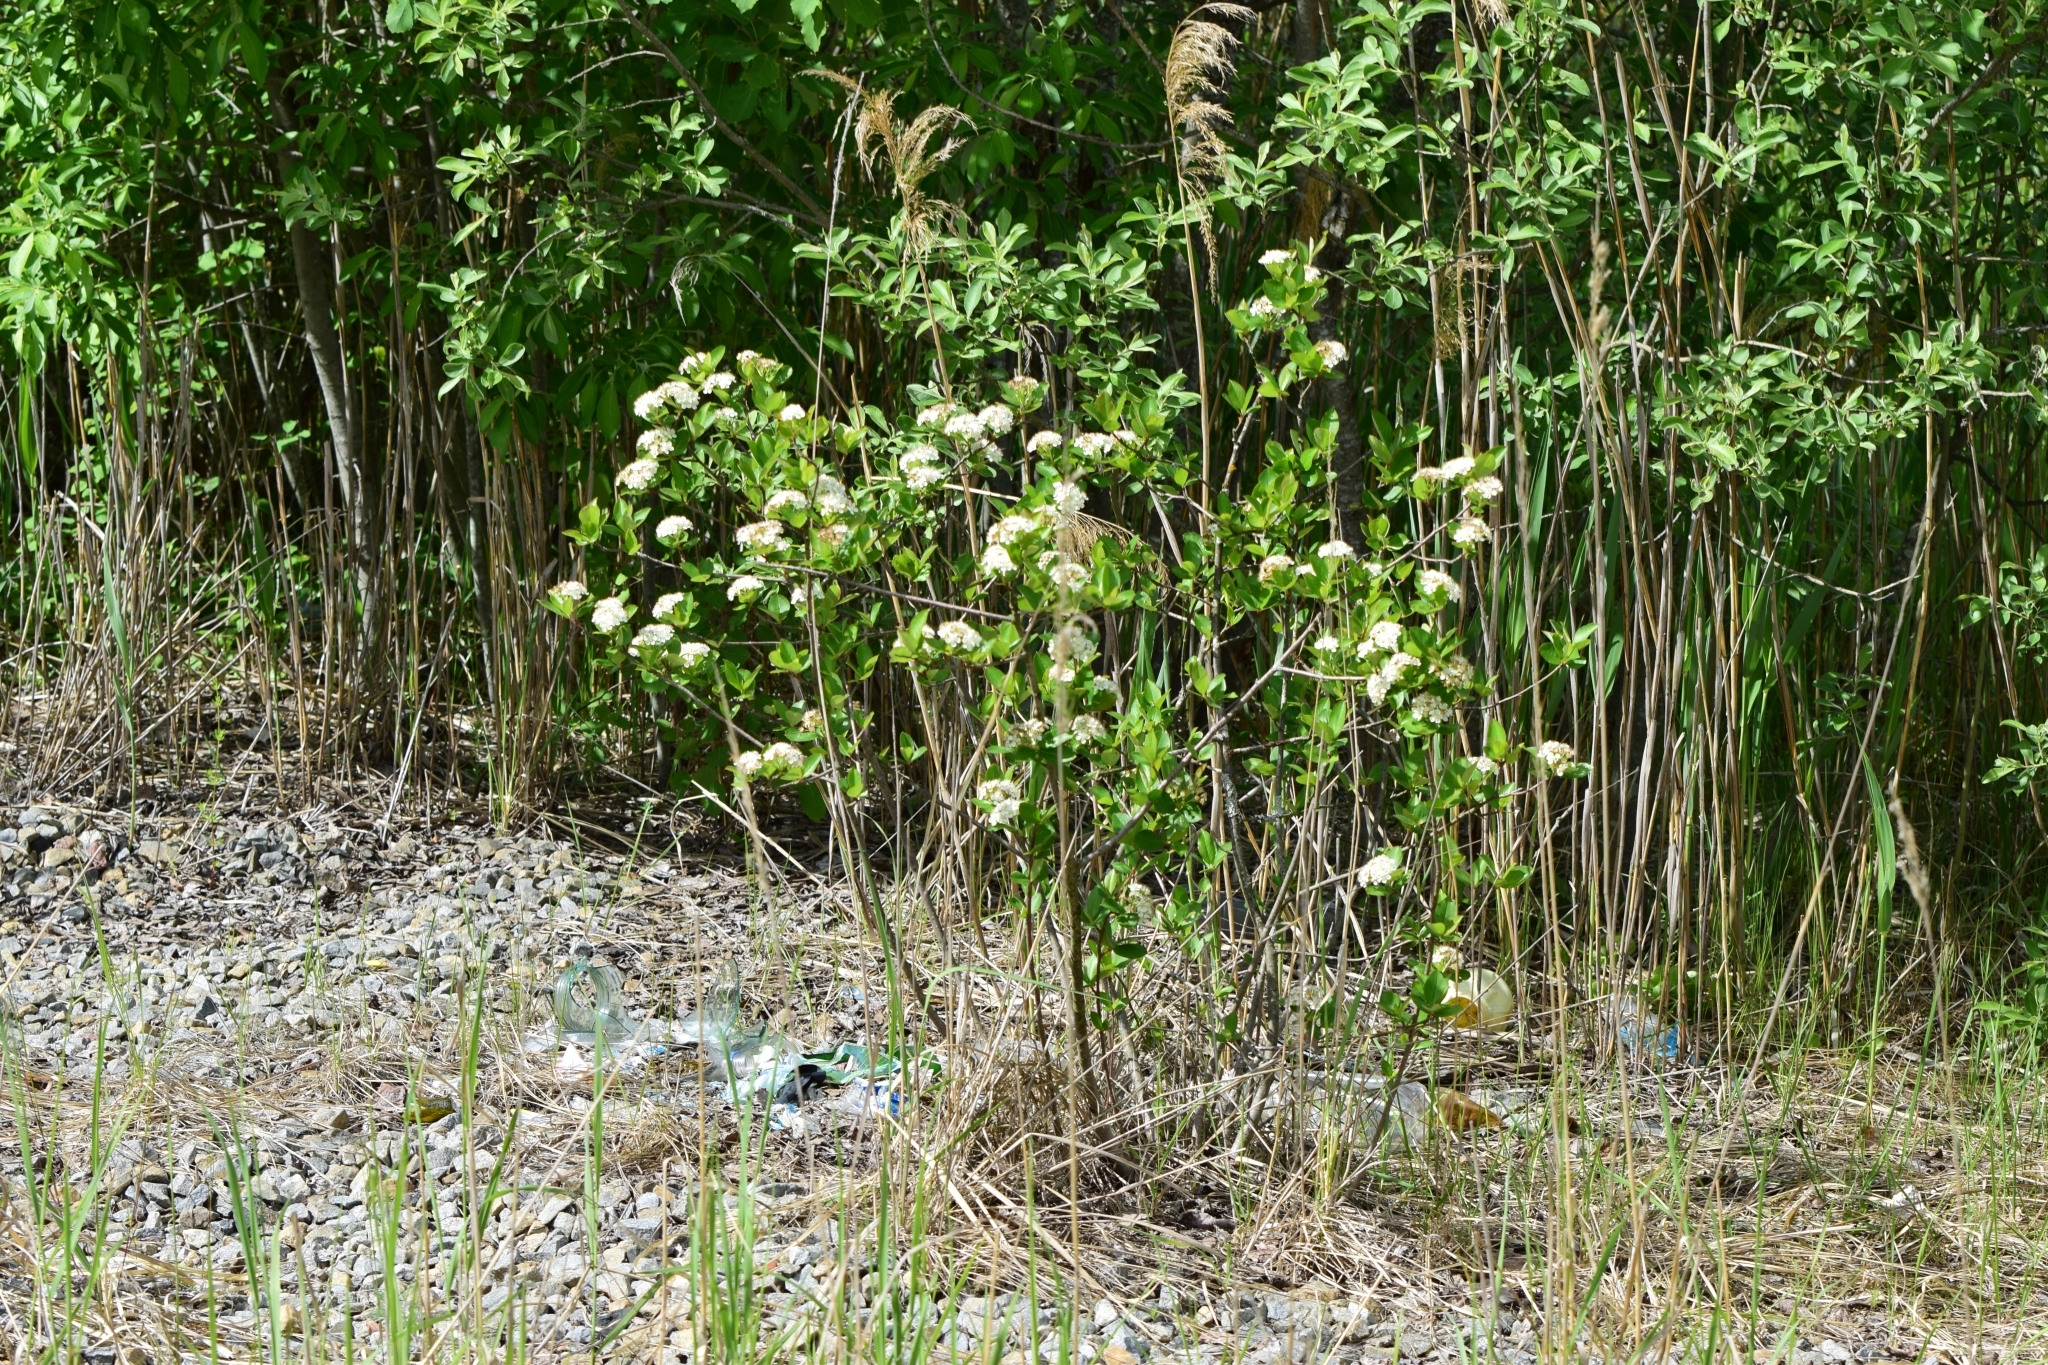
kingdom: Plantae
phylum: Tracheophyta
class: Magnoliopsida
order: Rosales
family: Rosaceae
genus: Sorbaronia
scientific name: Sorbaronia arsenii
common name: Arsène's mountain-ash
